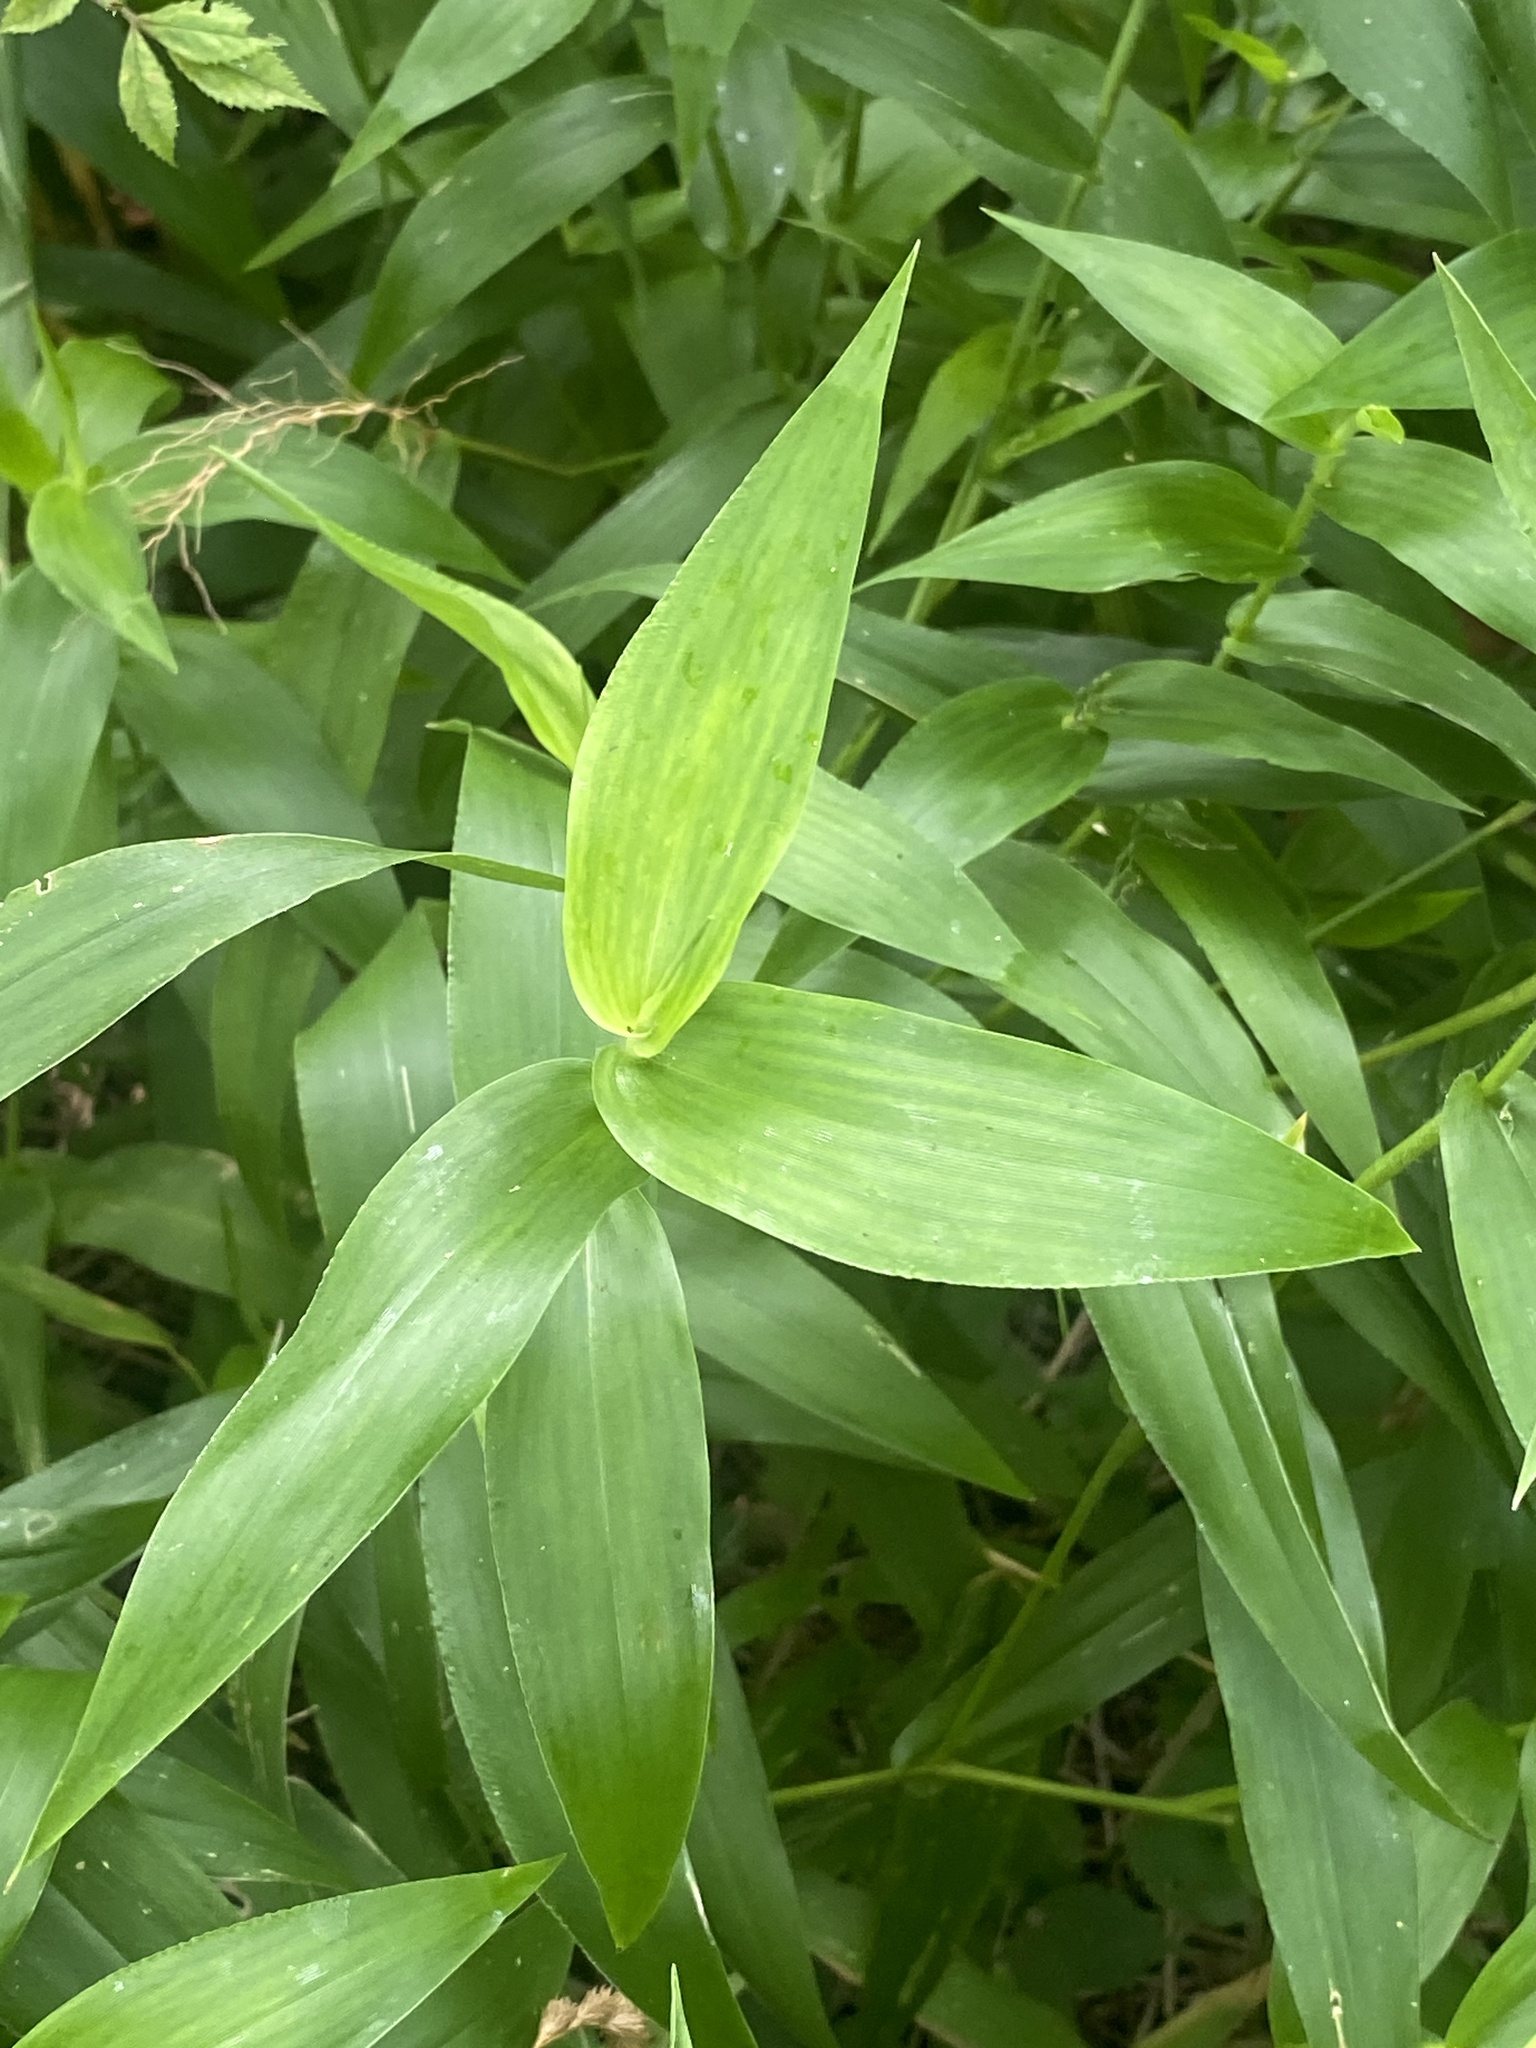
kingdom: Plantae
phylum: Tracheophyta
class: Liliopsida
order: Poales
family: Poaceae
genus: Dichanthelium
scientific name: Dichanthelium clandestinum
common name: Deer-tongue grass
